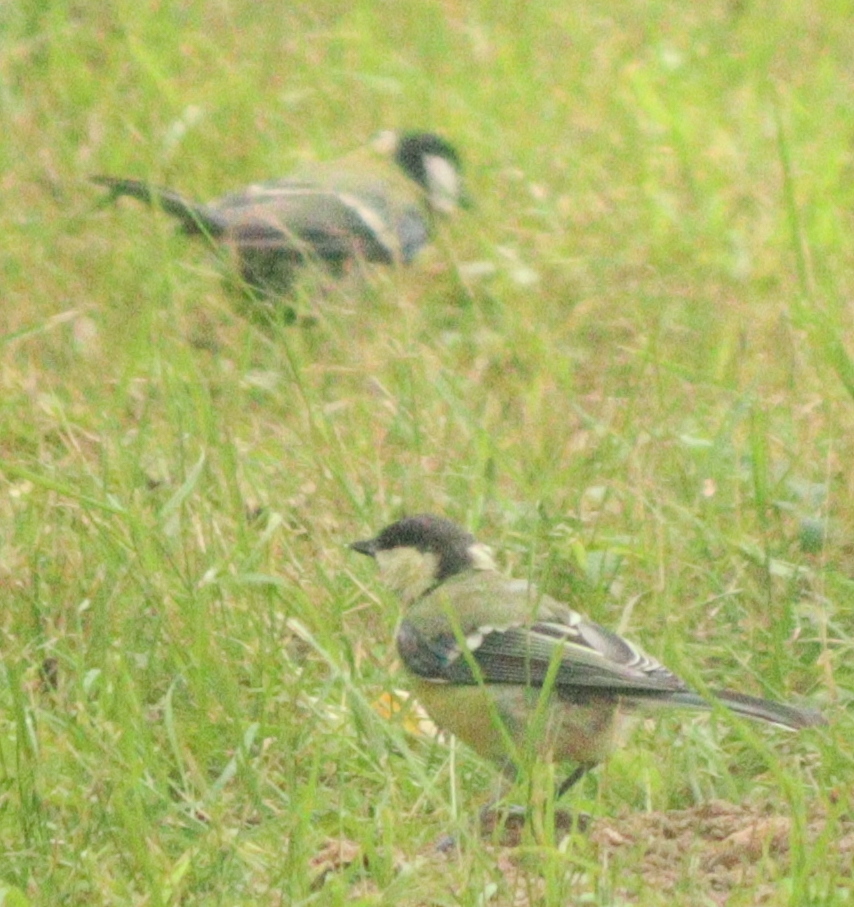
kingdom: Animalia
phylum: Chordata
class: Aves
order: Passeriformes
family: Paridae
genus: Parus
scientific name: Parus major
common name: Great tit
